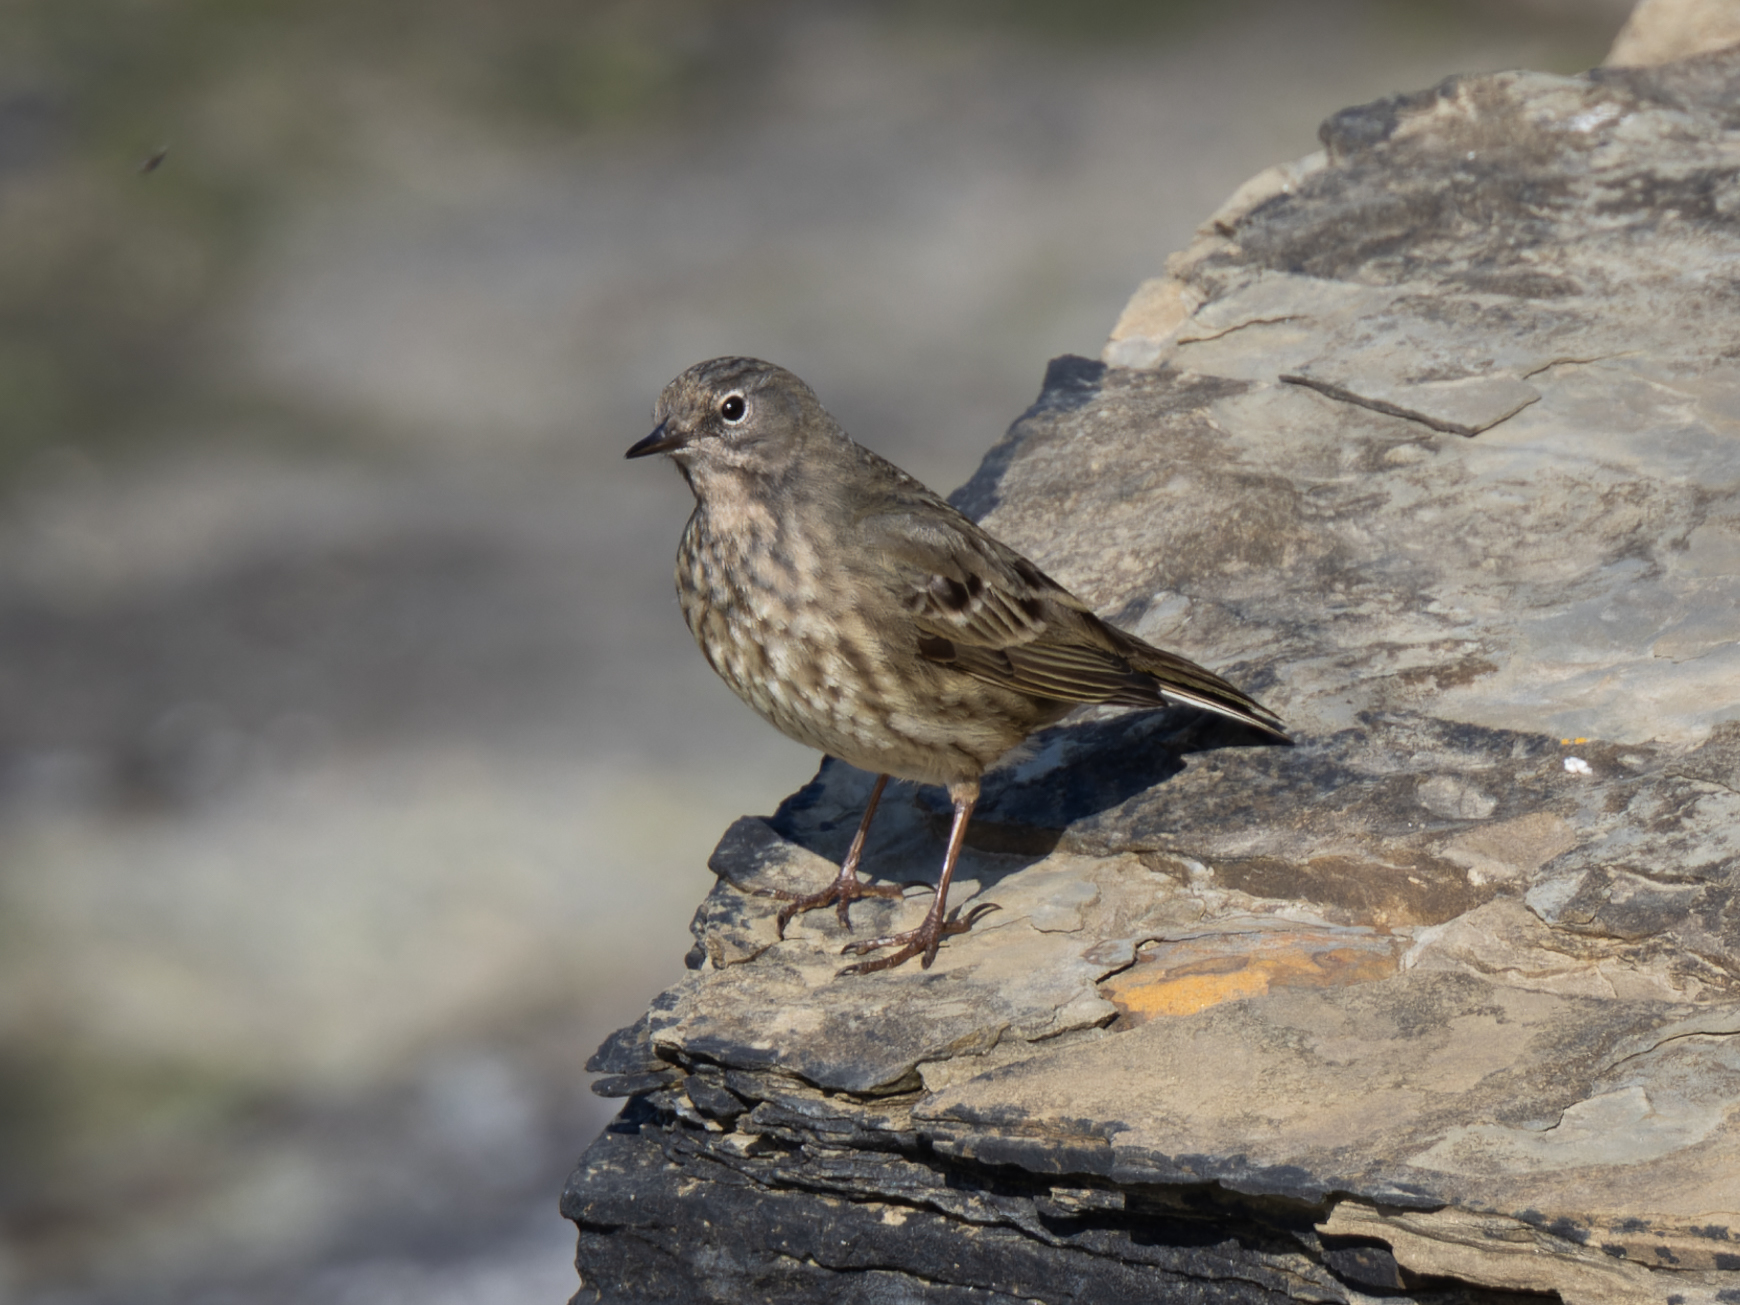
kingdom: Animalia
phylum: Chordata
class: Aves
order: Passeriformes
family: Motacillidae
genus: Anthus
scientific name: Anthus petrosus
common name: Eurasian rock pipit
